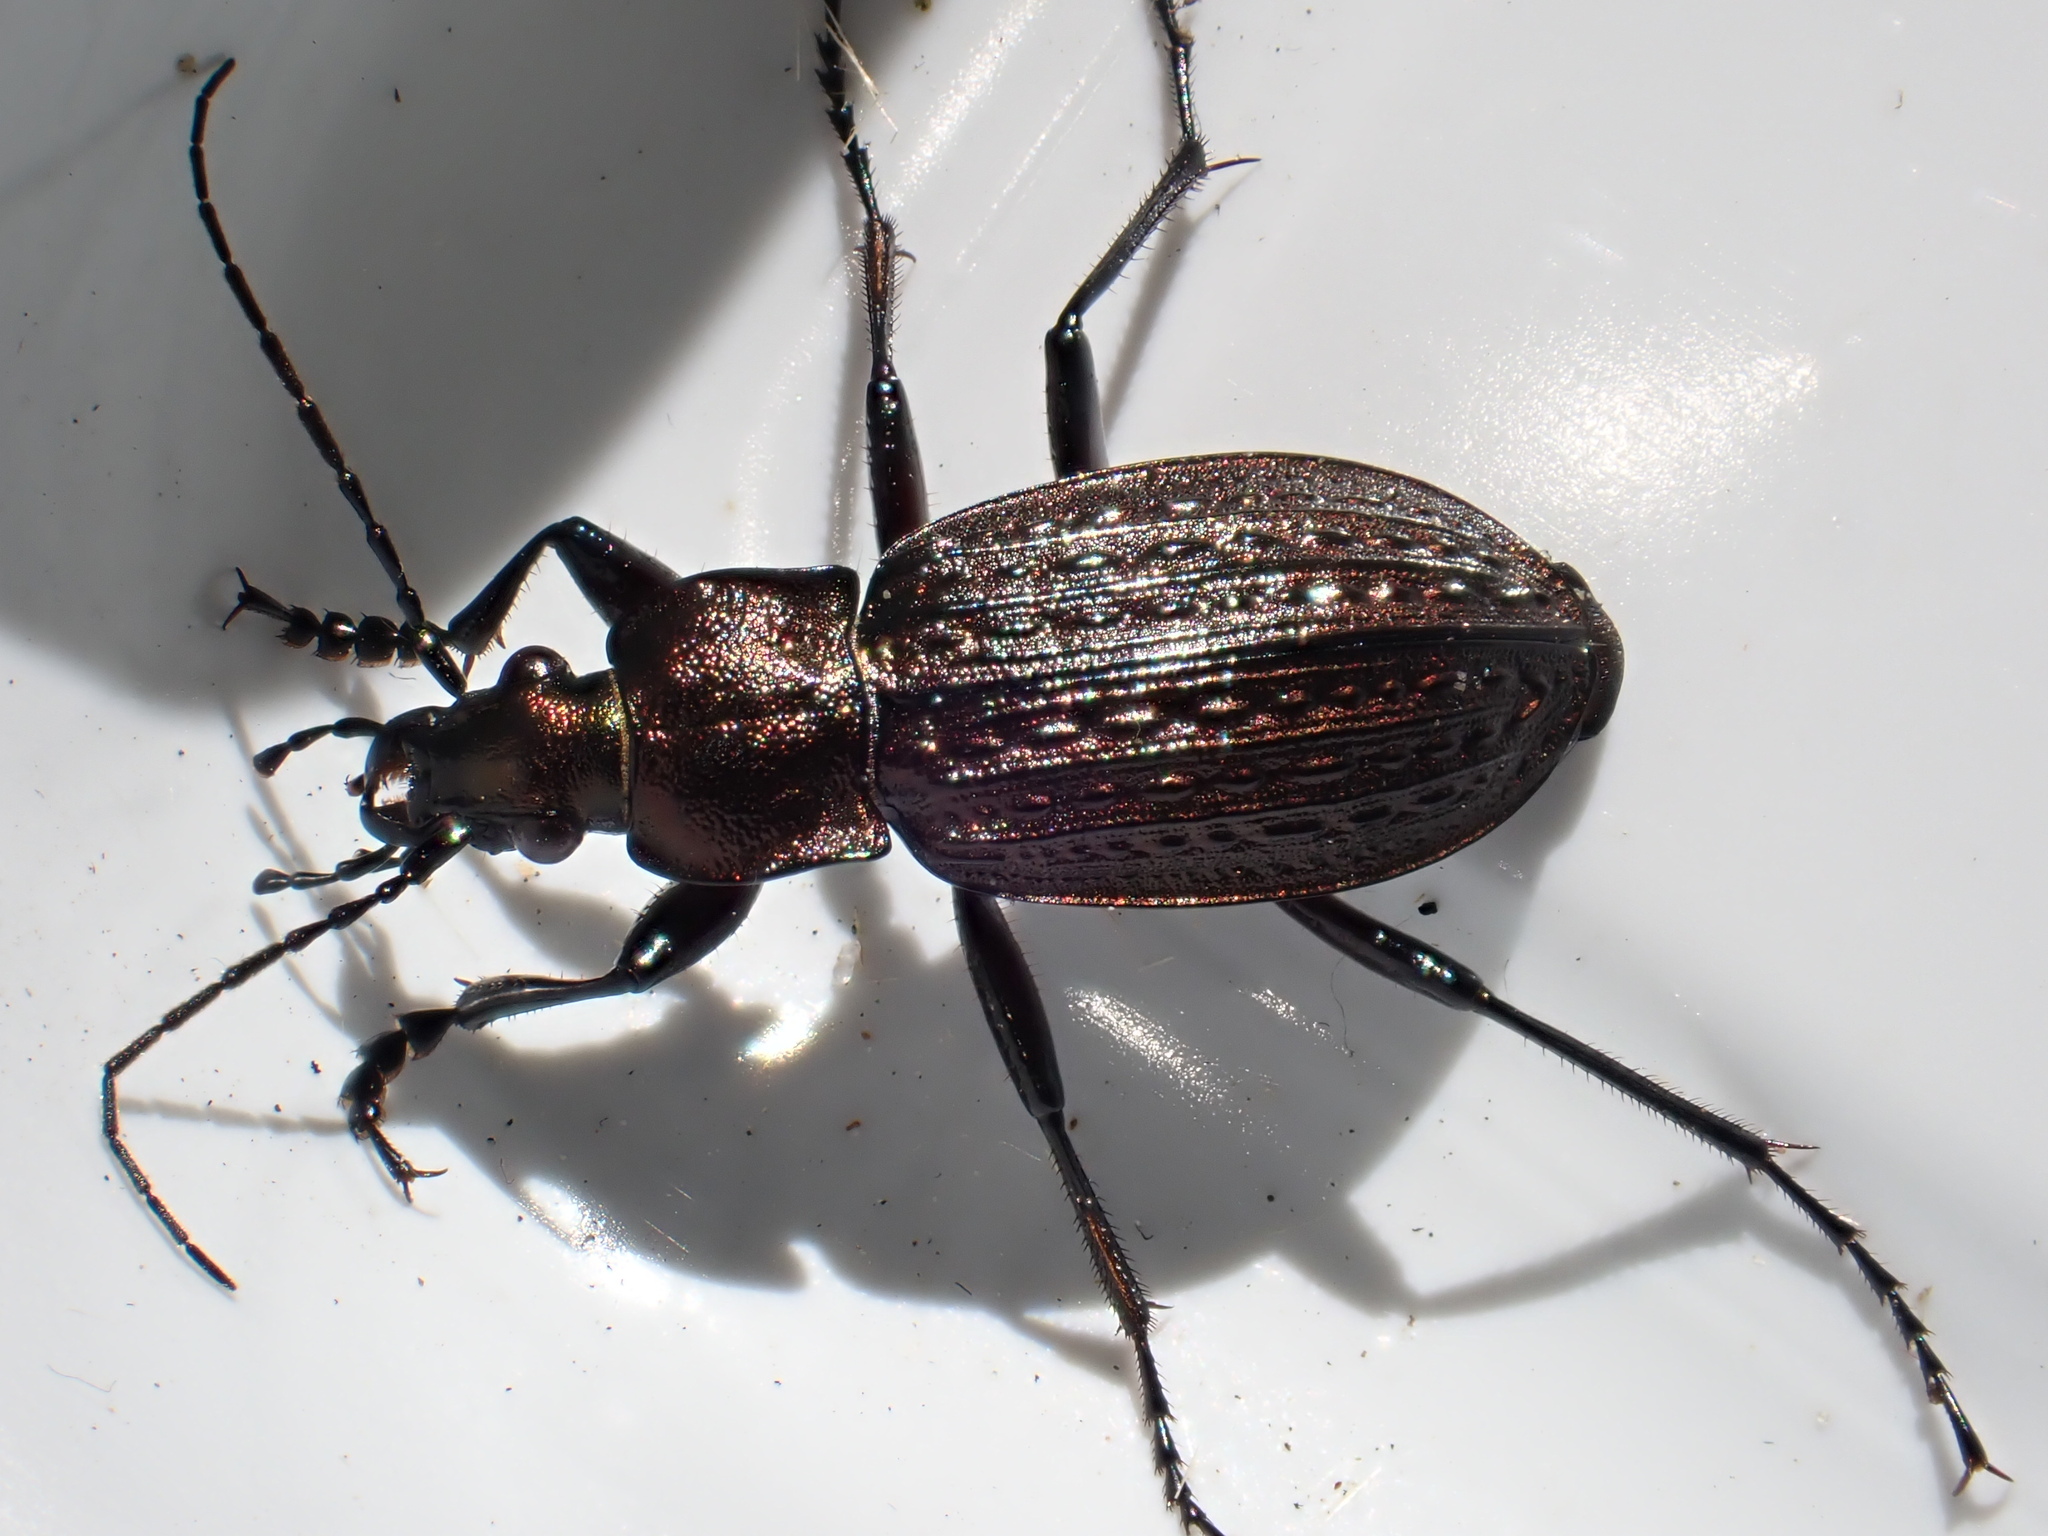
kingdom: Animalia
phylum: Arthropoda
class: Insecta
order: Coleoptera
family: Carabidae
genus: Carabus
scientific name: Carabus granulatus
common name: Granulate ground beetle
